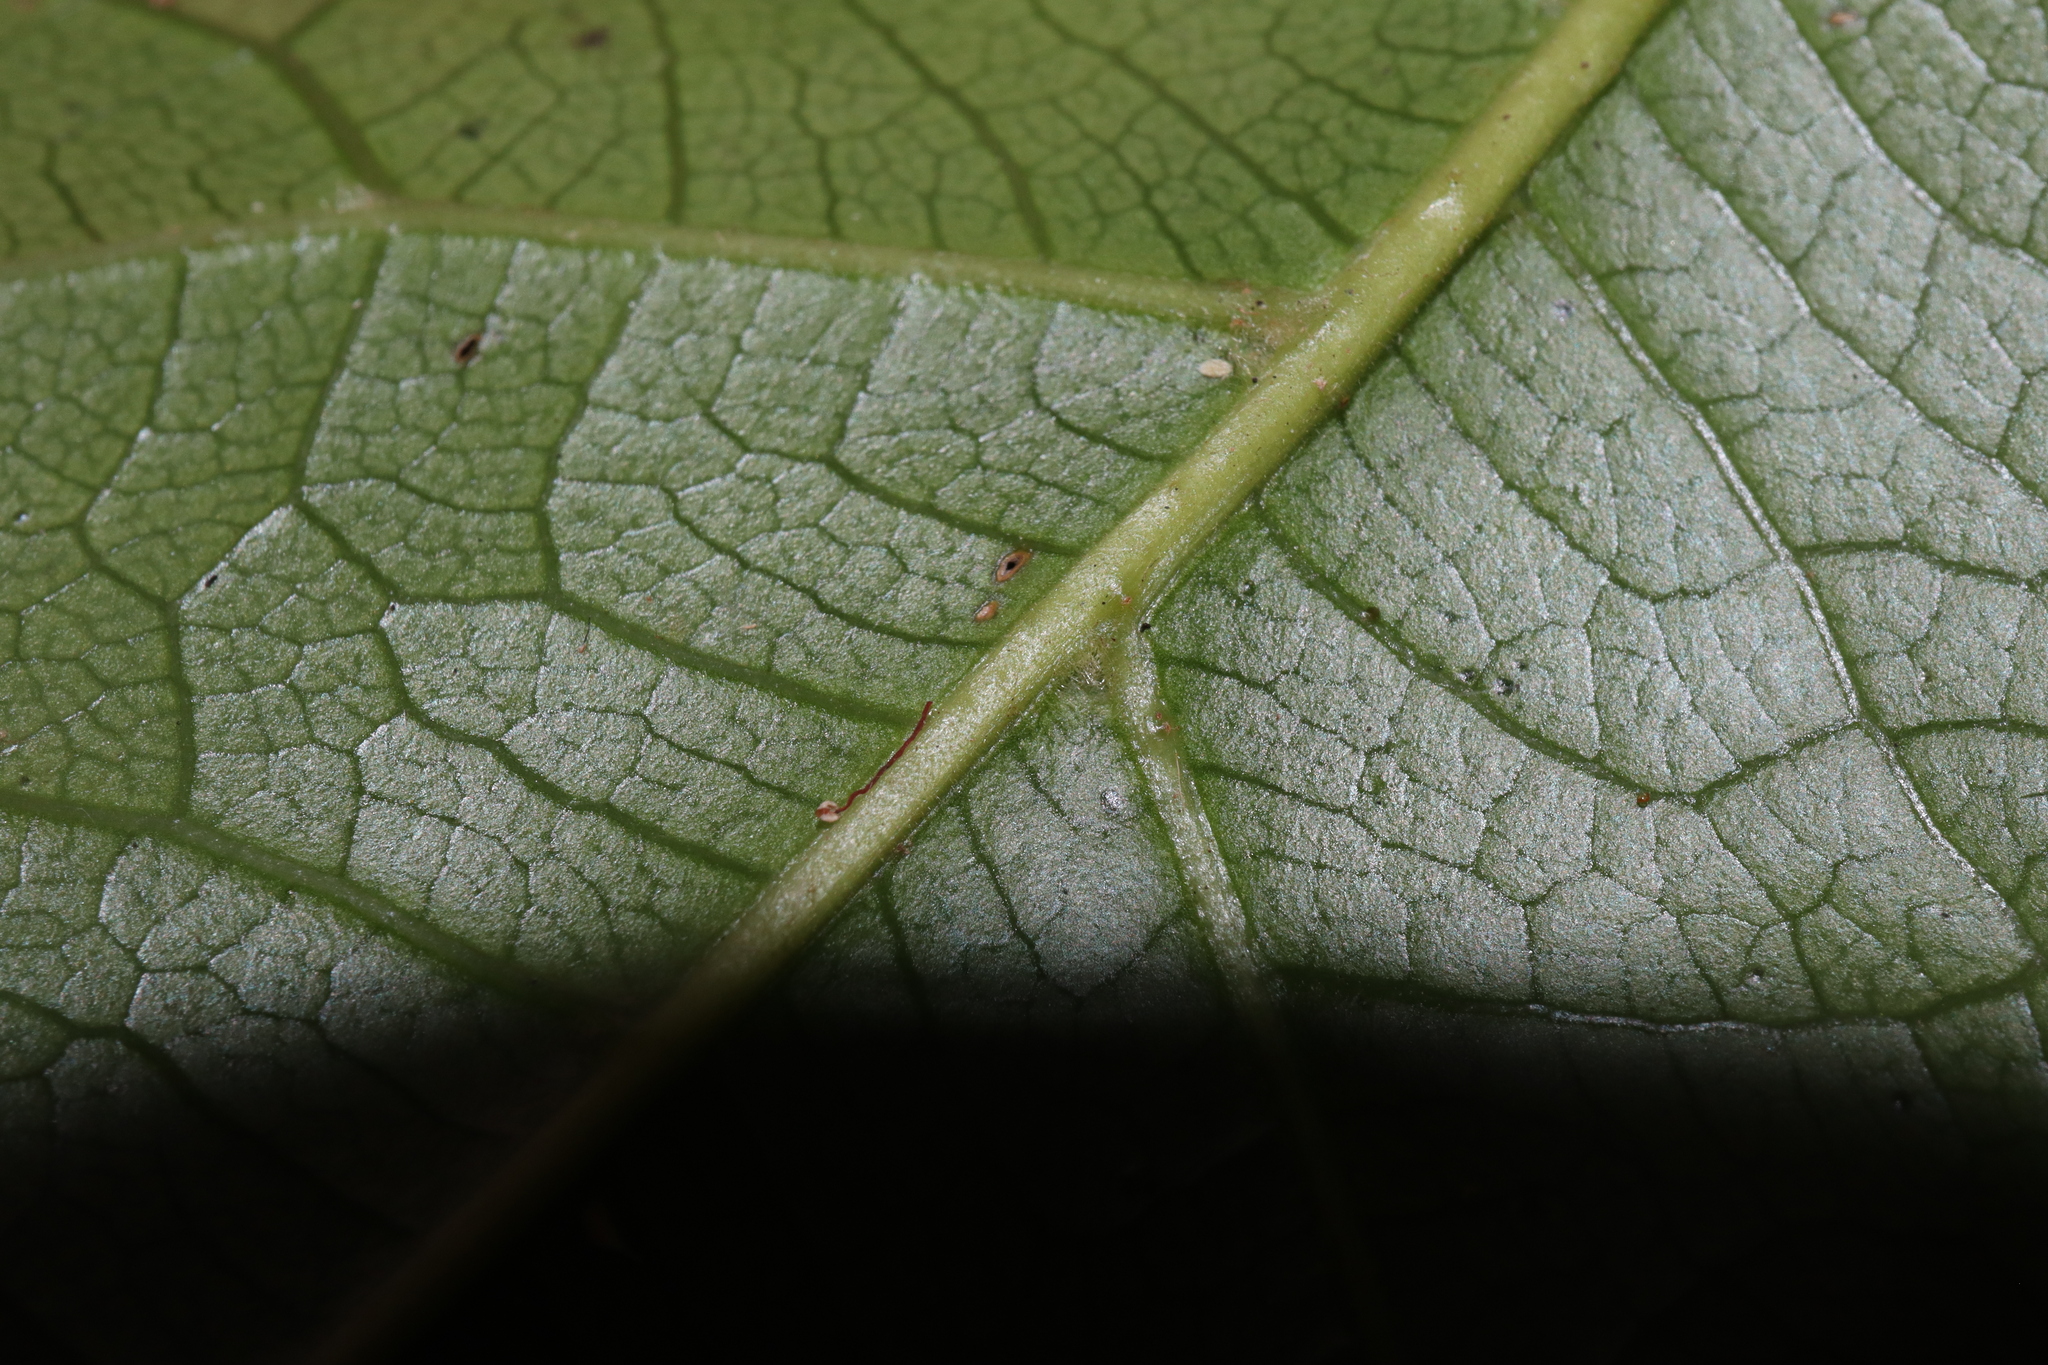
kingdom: Plantae
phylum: Tracheophyta
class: Magnoliopsida
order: Oxalidales
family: Elaeocarpaceae
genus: Sloanea
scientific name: Sloanea woollsii
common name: Yellow carabeen
